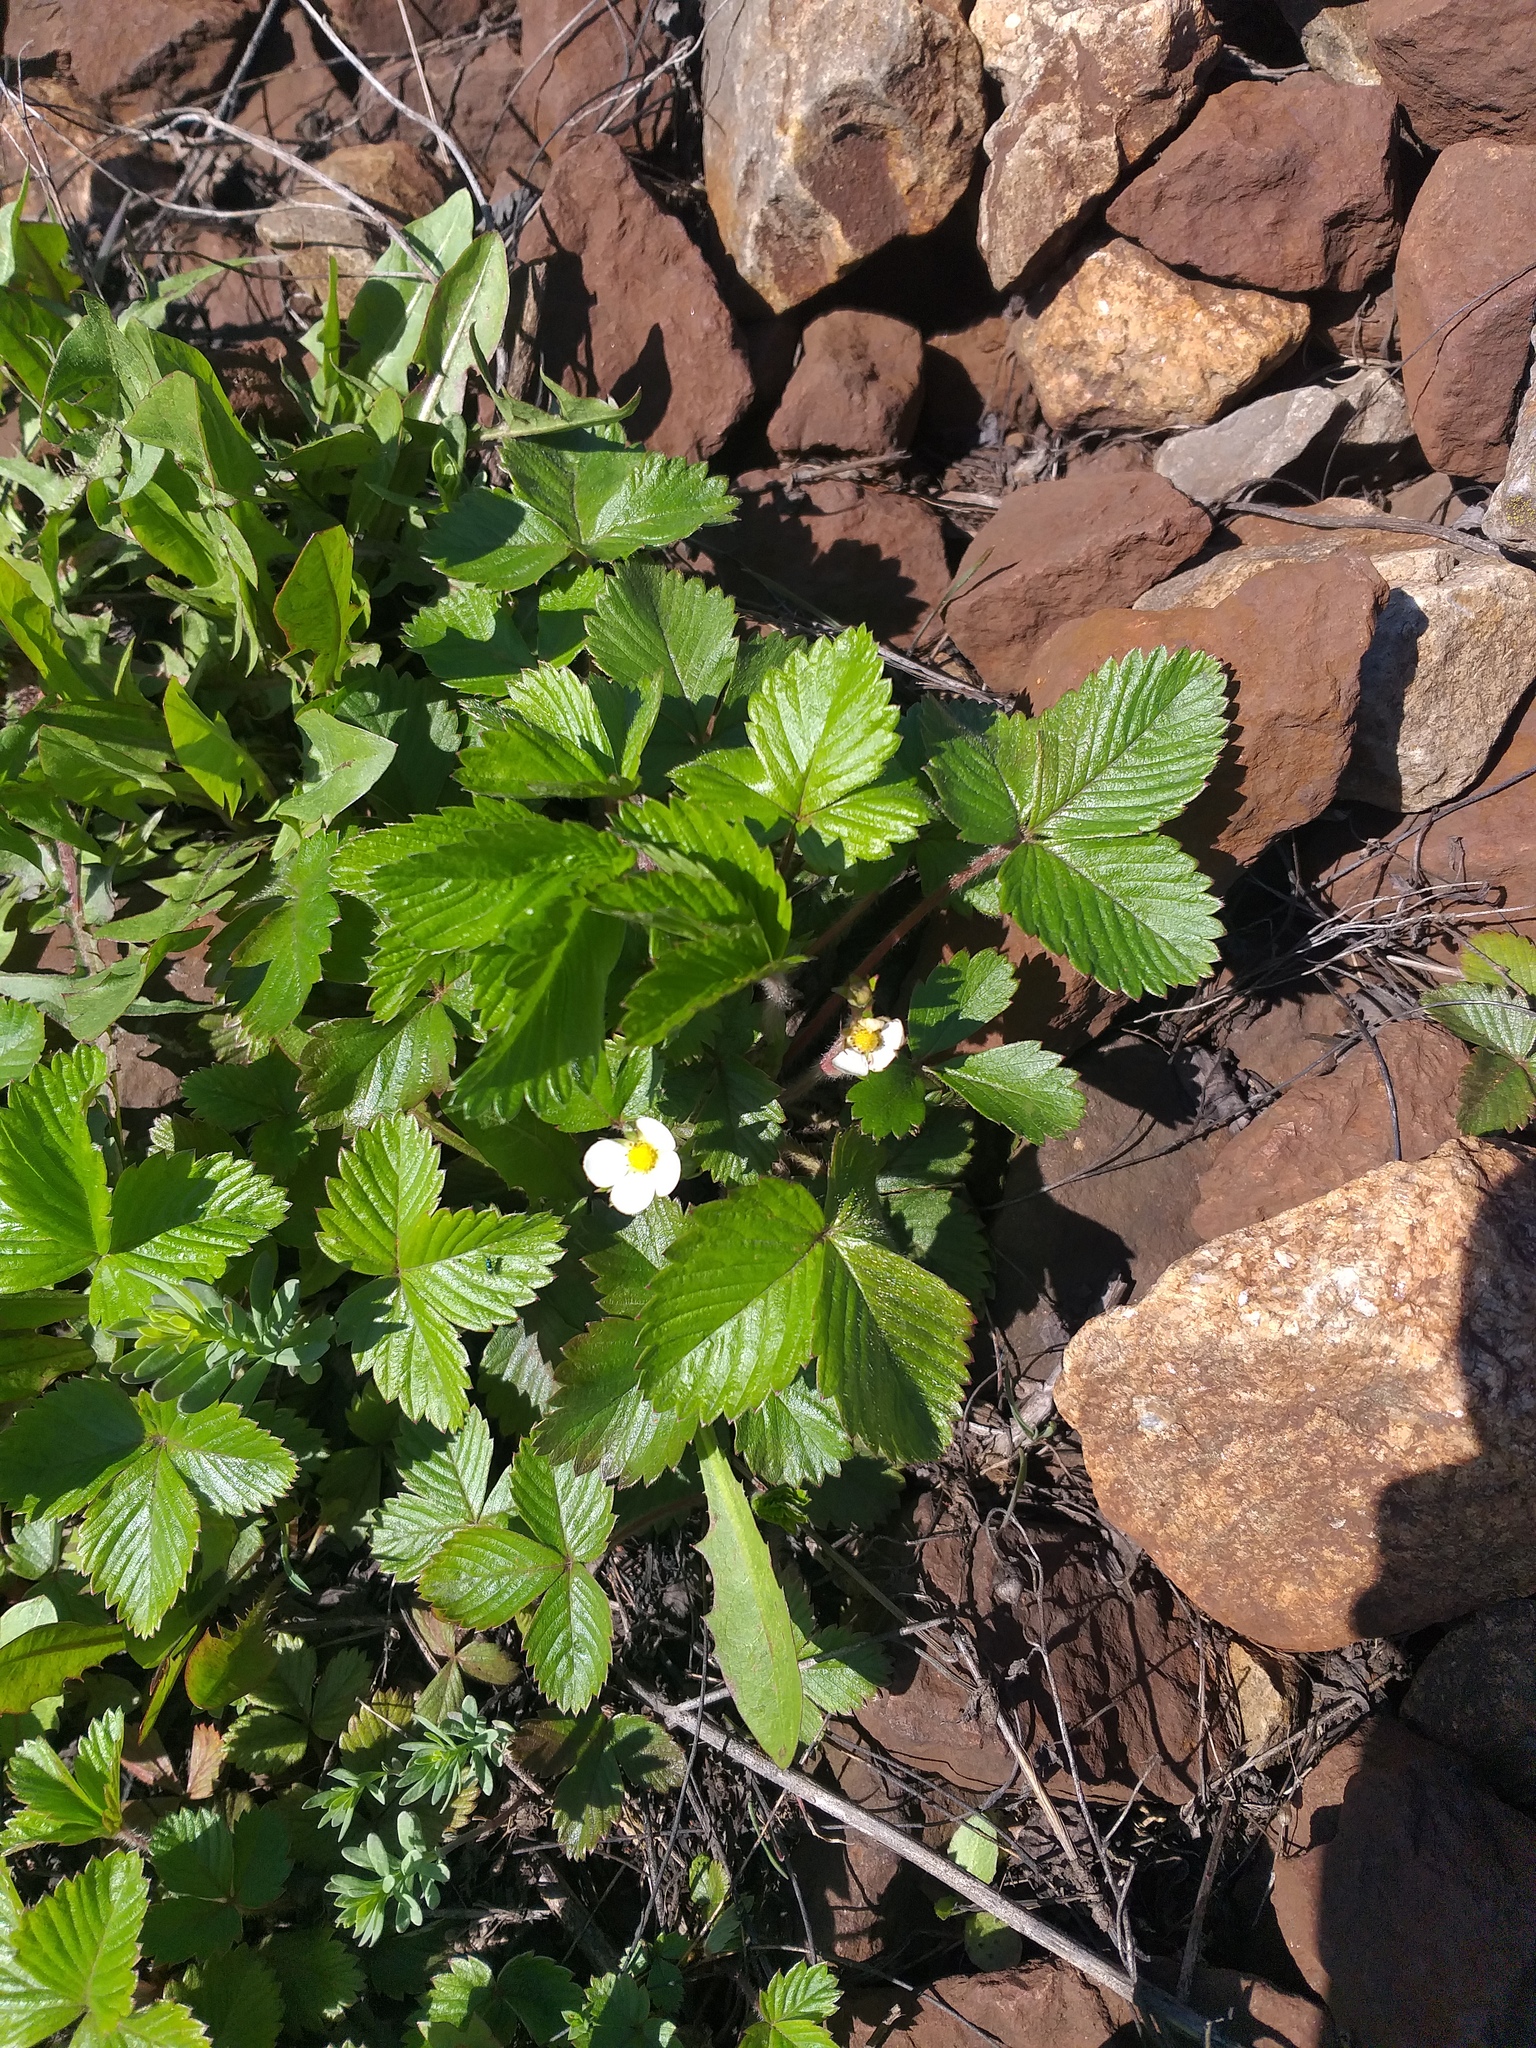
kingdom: Plantae
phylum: Tracheophyta
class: Magnoliopsida
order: Rosales
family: Rosaceae
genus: Fragaria
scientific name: Fragaria vesca
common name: Wild strawberry
